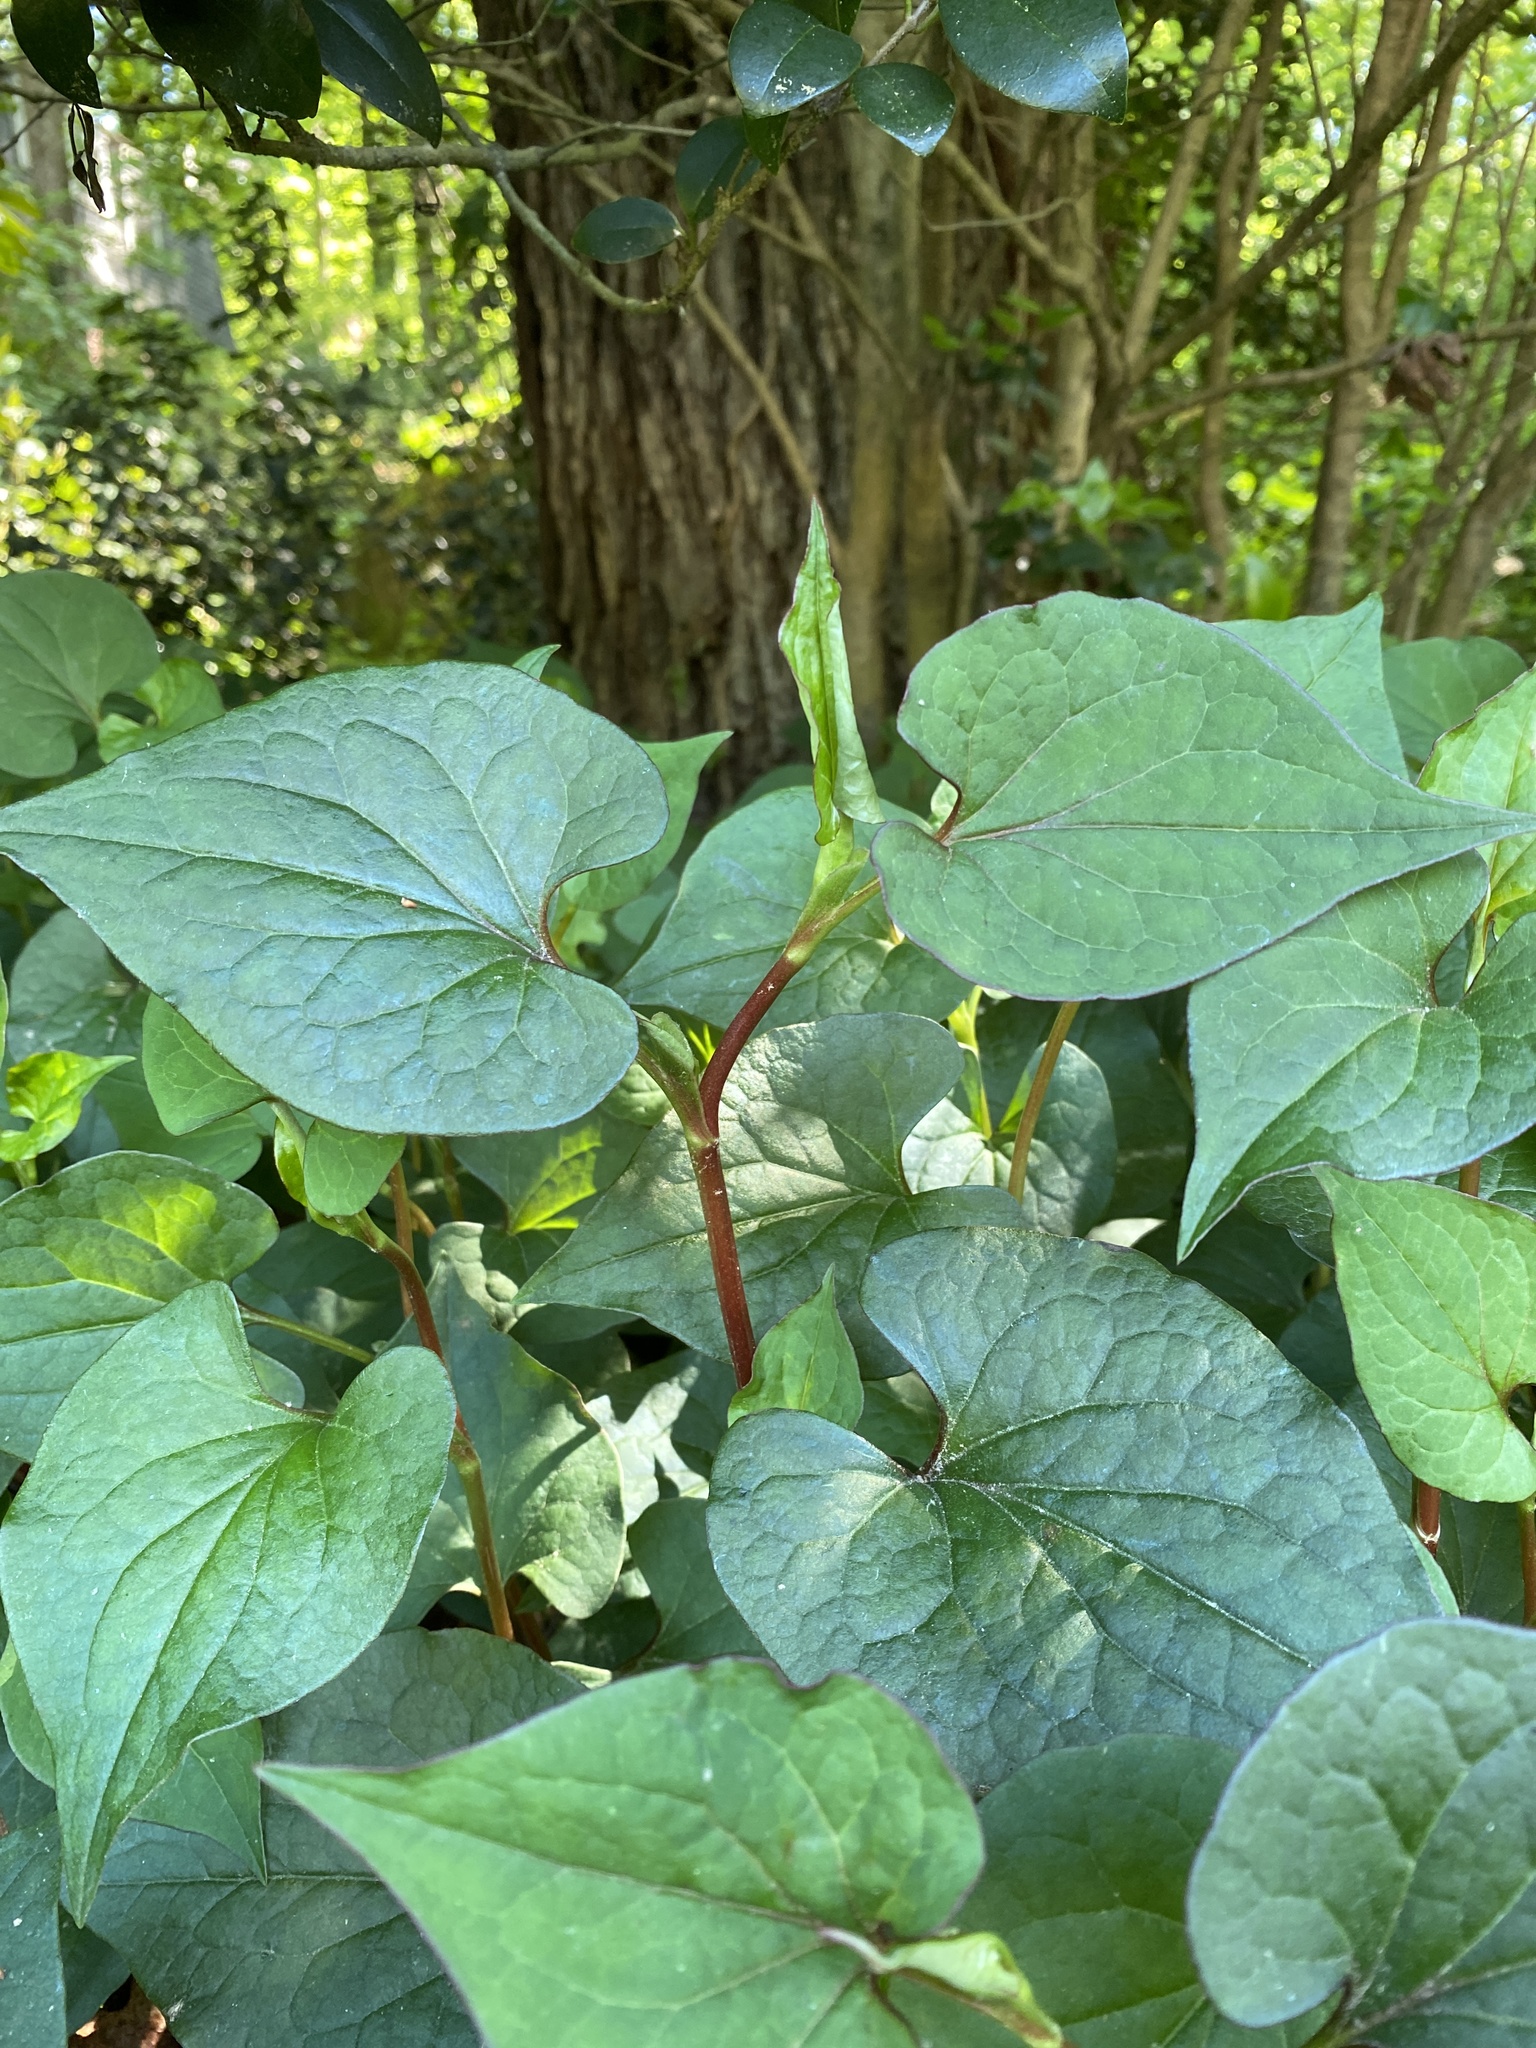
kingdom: Plantae
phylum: Tracheophyta
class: Magnoliopsida
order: Piperales
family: Saururaceae
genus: Houttuynia
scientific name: Houttuynia cordata
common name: Chameleon
